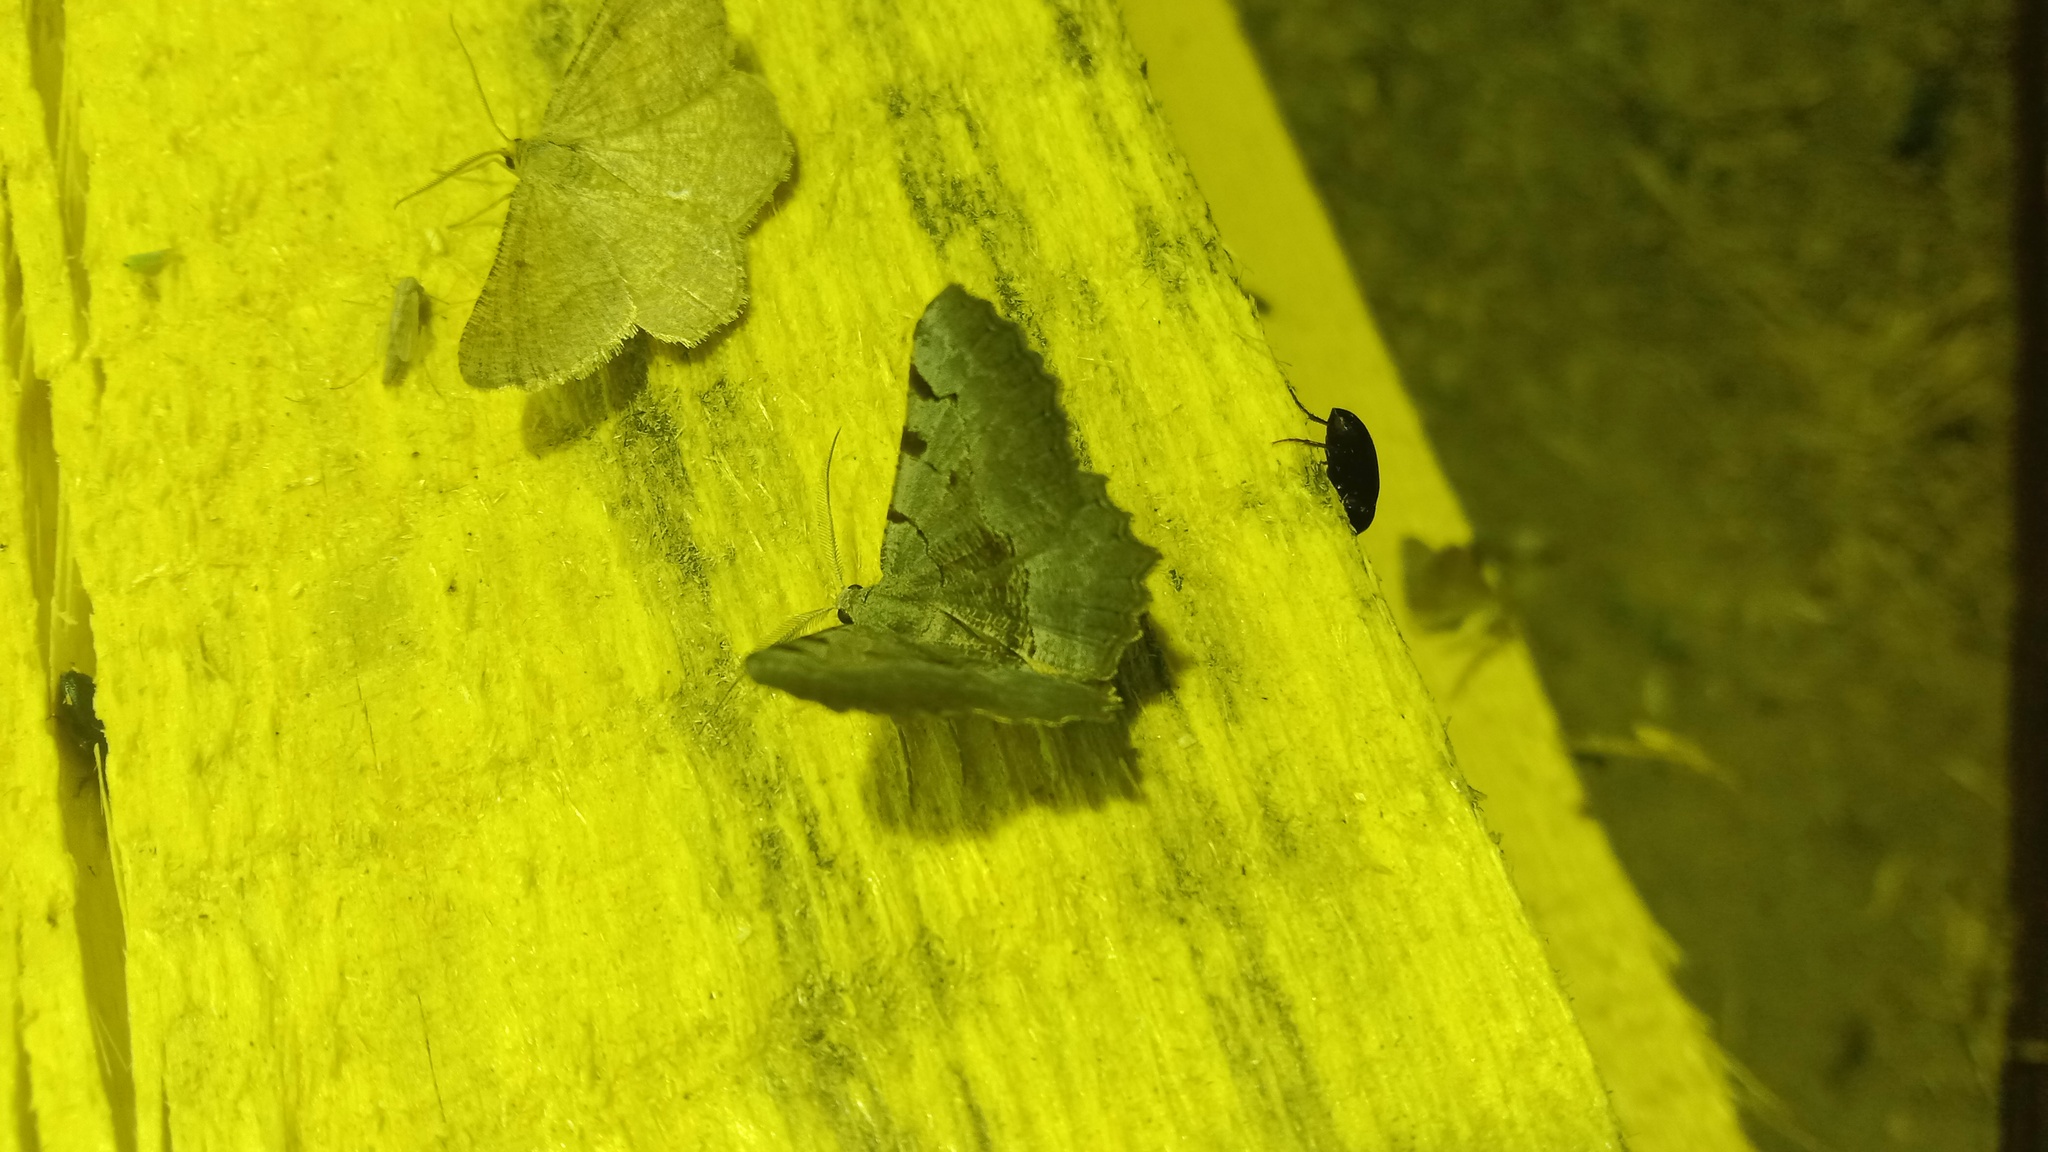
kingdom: Animalia
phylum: Arthropoda
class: Insecta
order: Lepidoptera
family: Geometridae
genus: Neognopharmia
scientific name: Neognopharmia stevenaria
